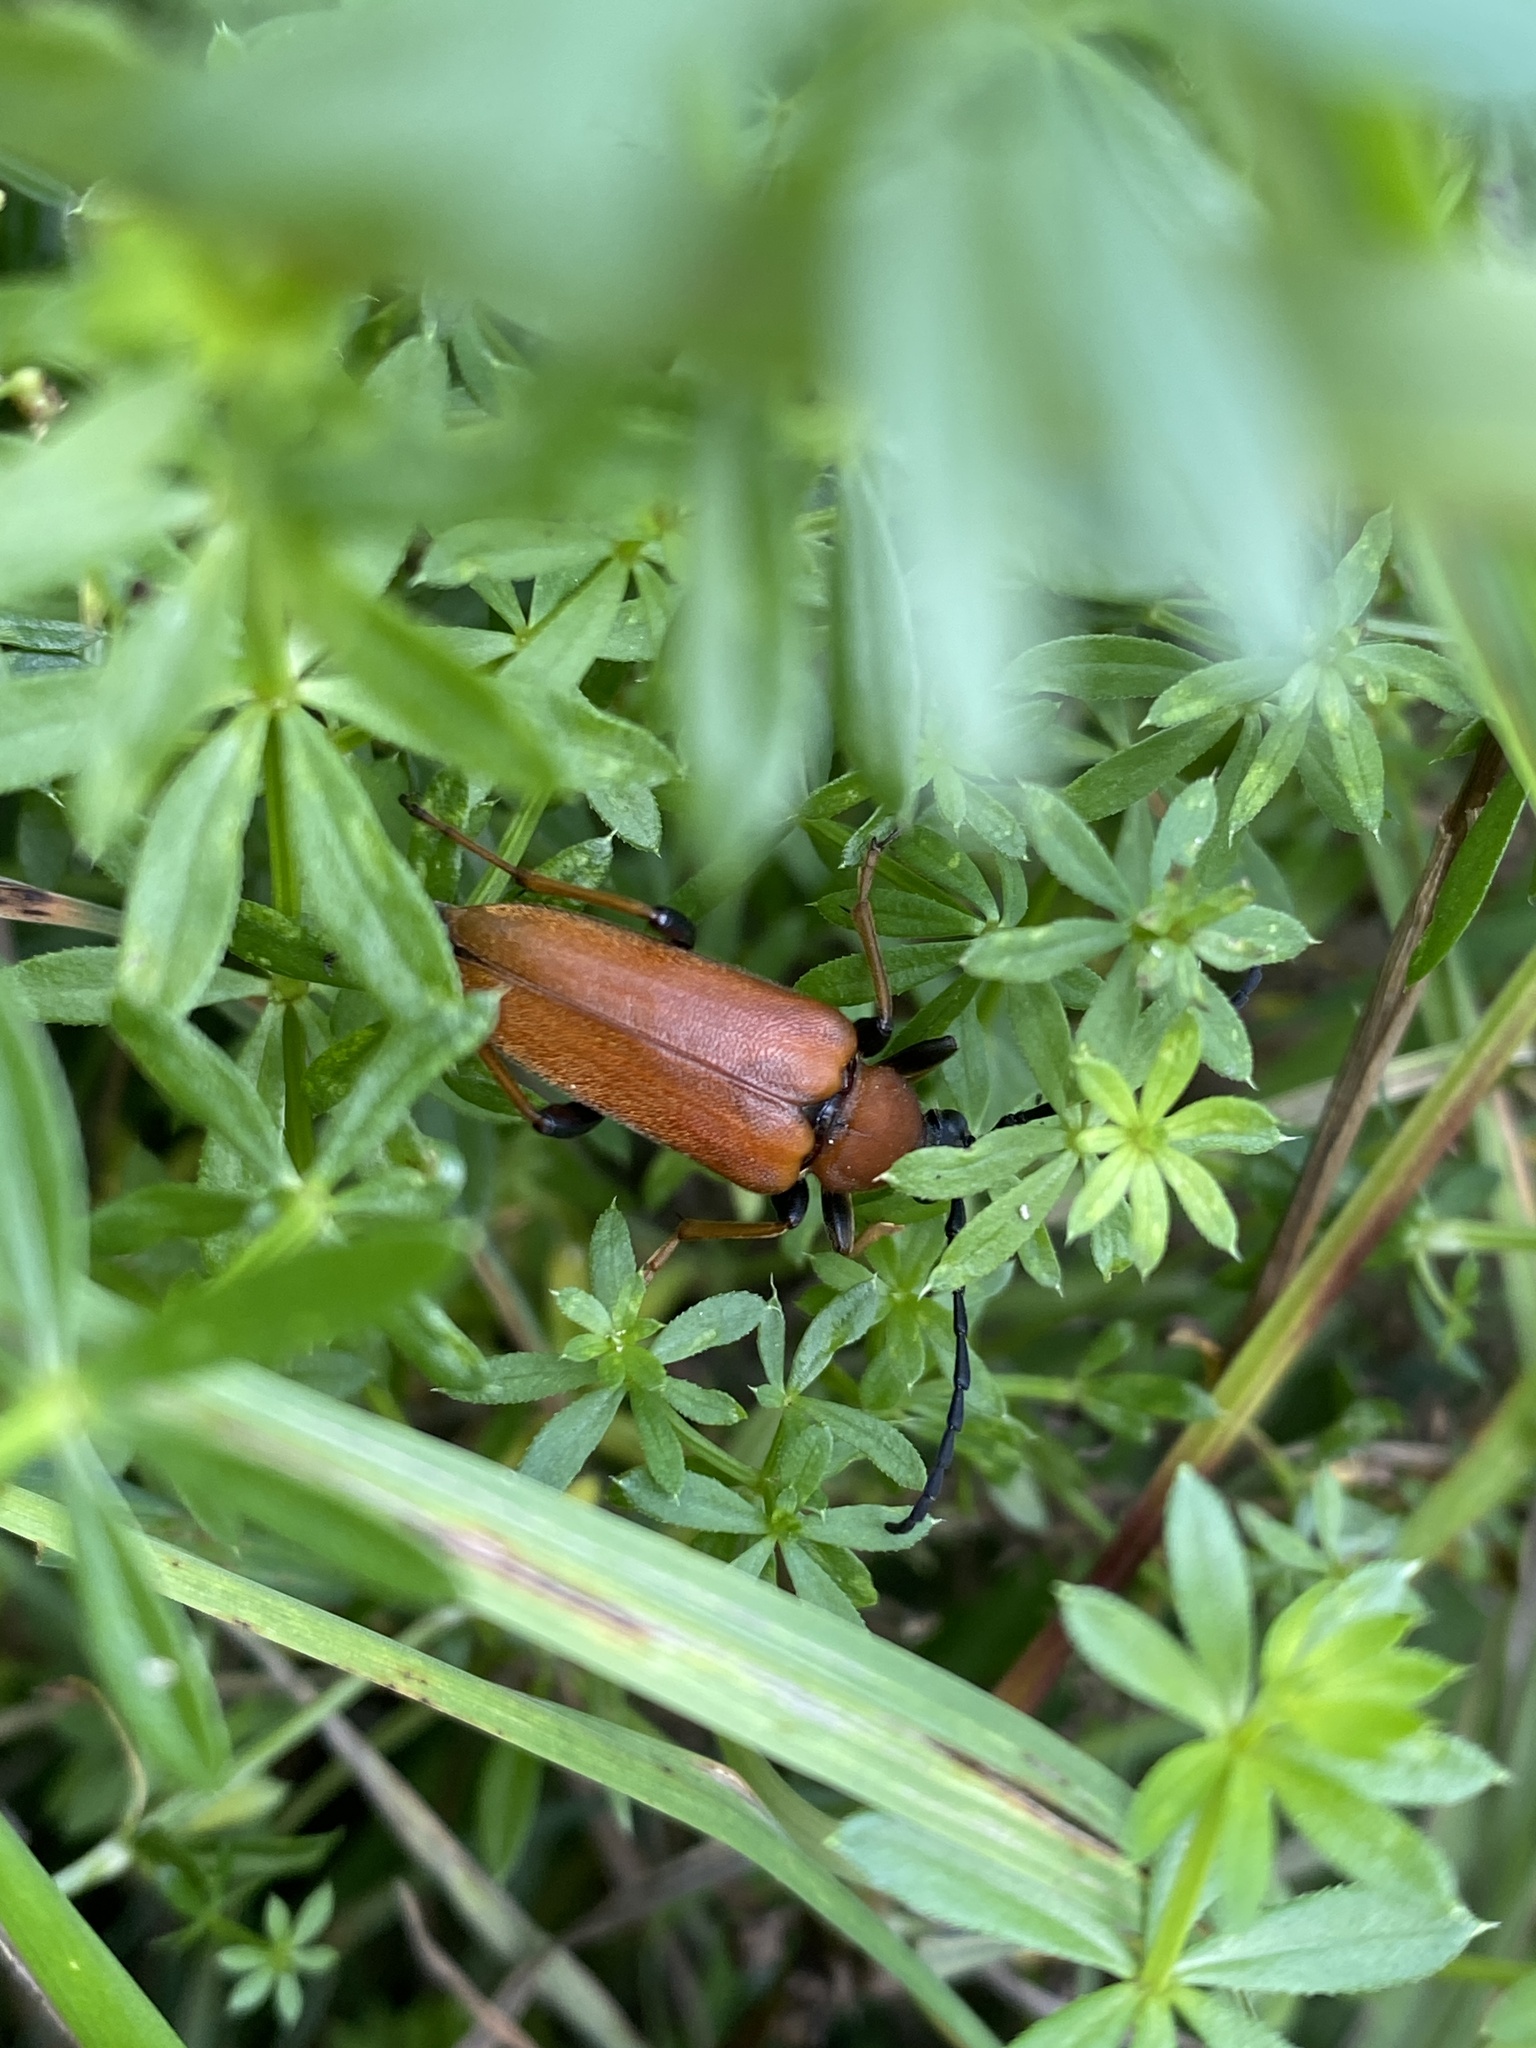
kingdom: Animalia
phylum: Arthropoda
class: Insecta
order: Coleoptera
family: Cerambycidae
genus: Stictoleptura
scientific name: Stictoleptura rubra
